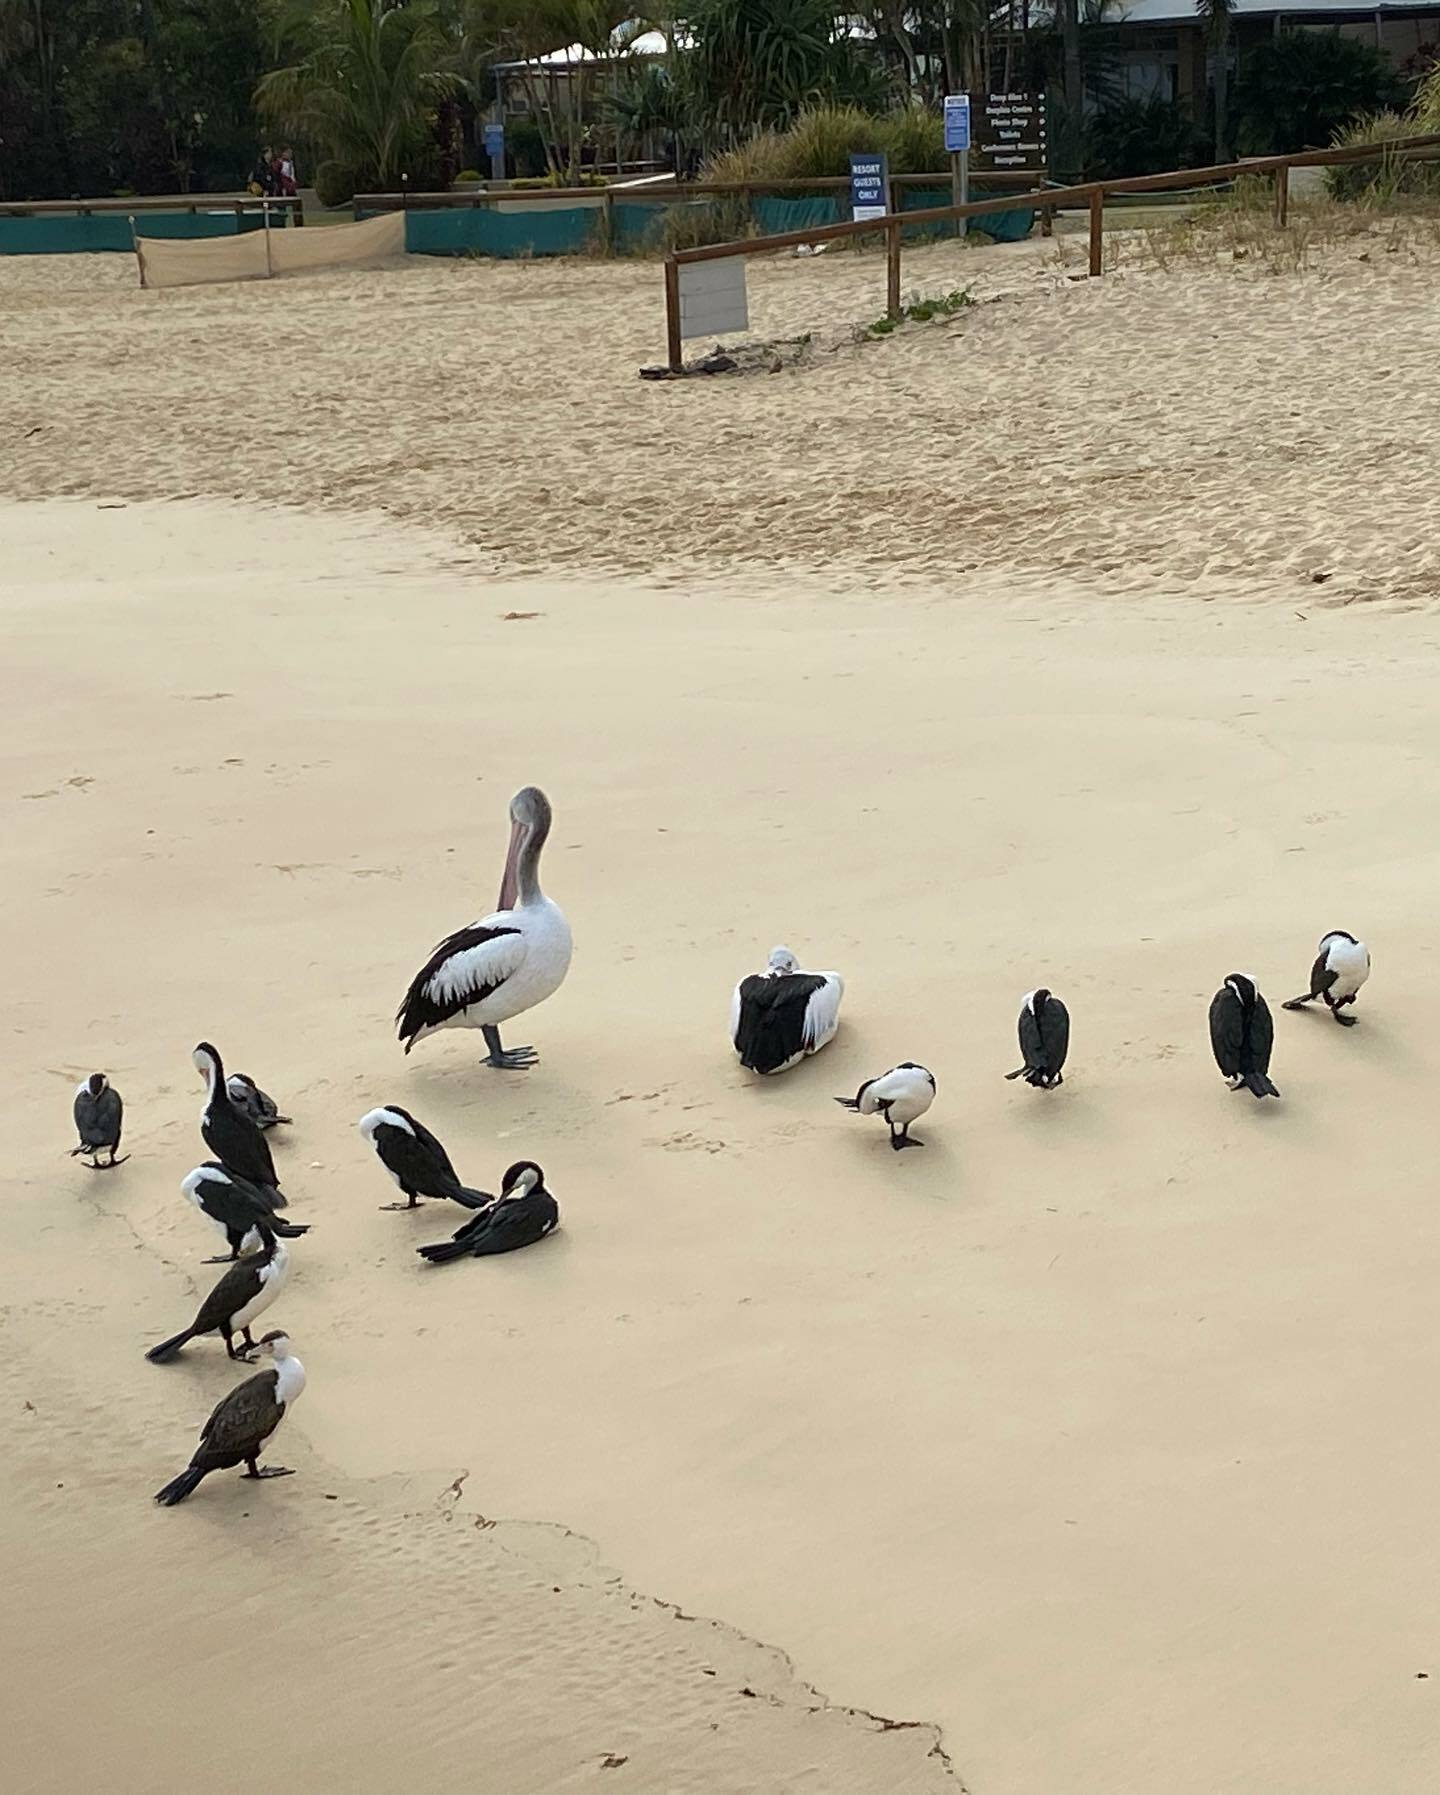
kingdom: Animalia
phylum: Chordata
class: Aves
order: Pelecaniformes
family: Pelecanidae
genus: Pelecanus
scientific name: Pelecanus conspicillatus
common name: Australian pelican
